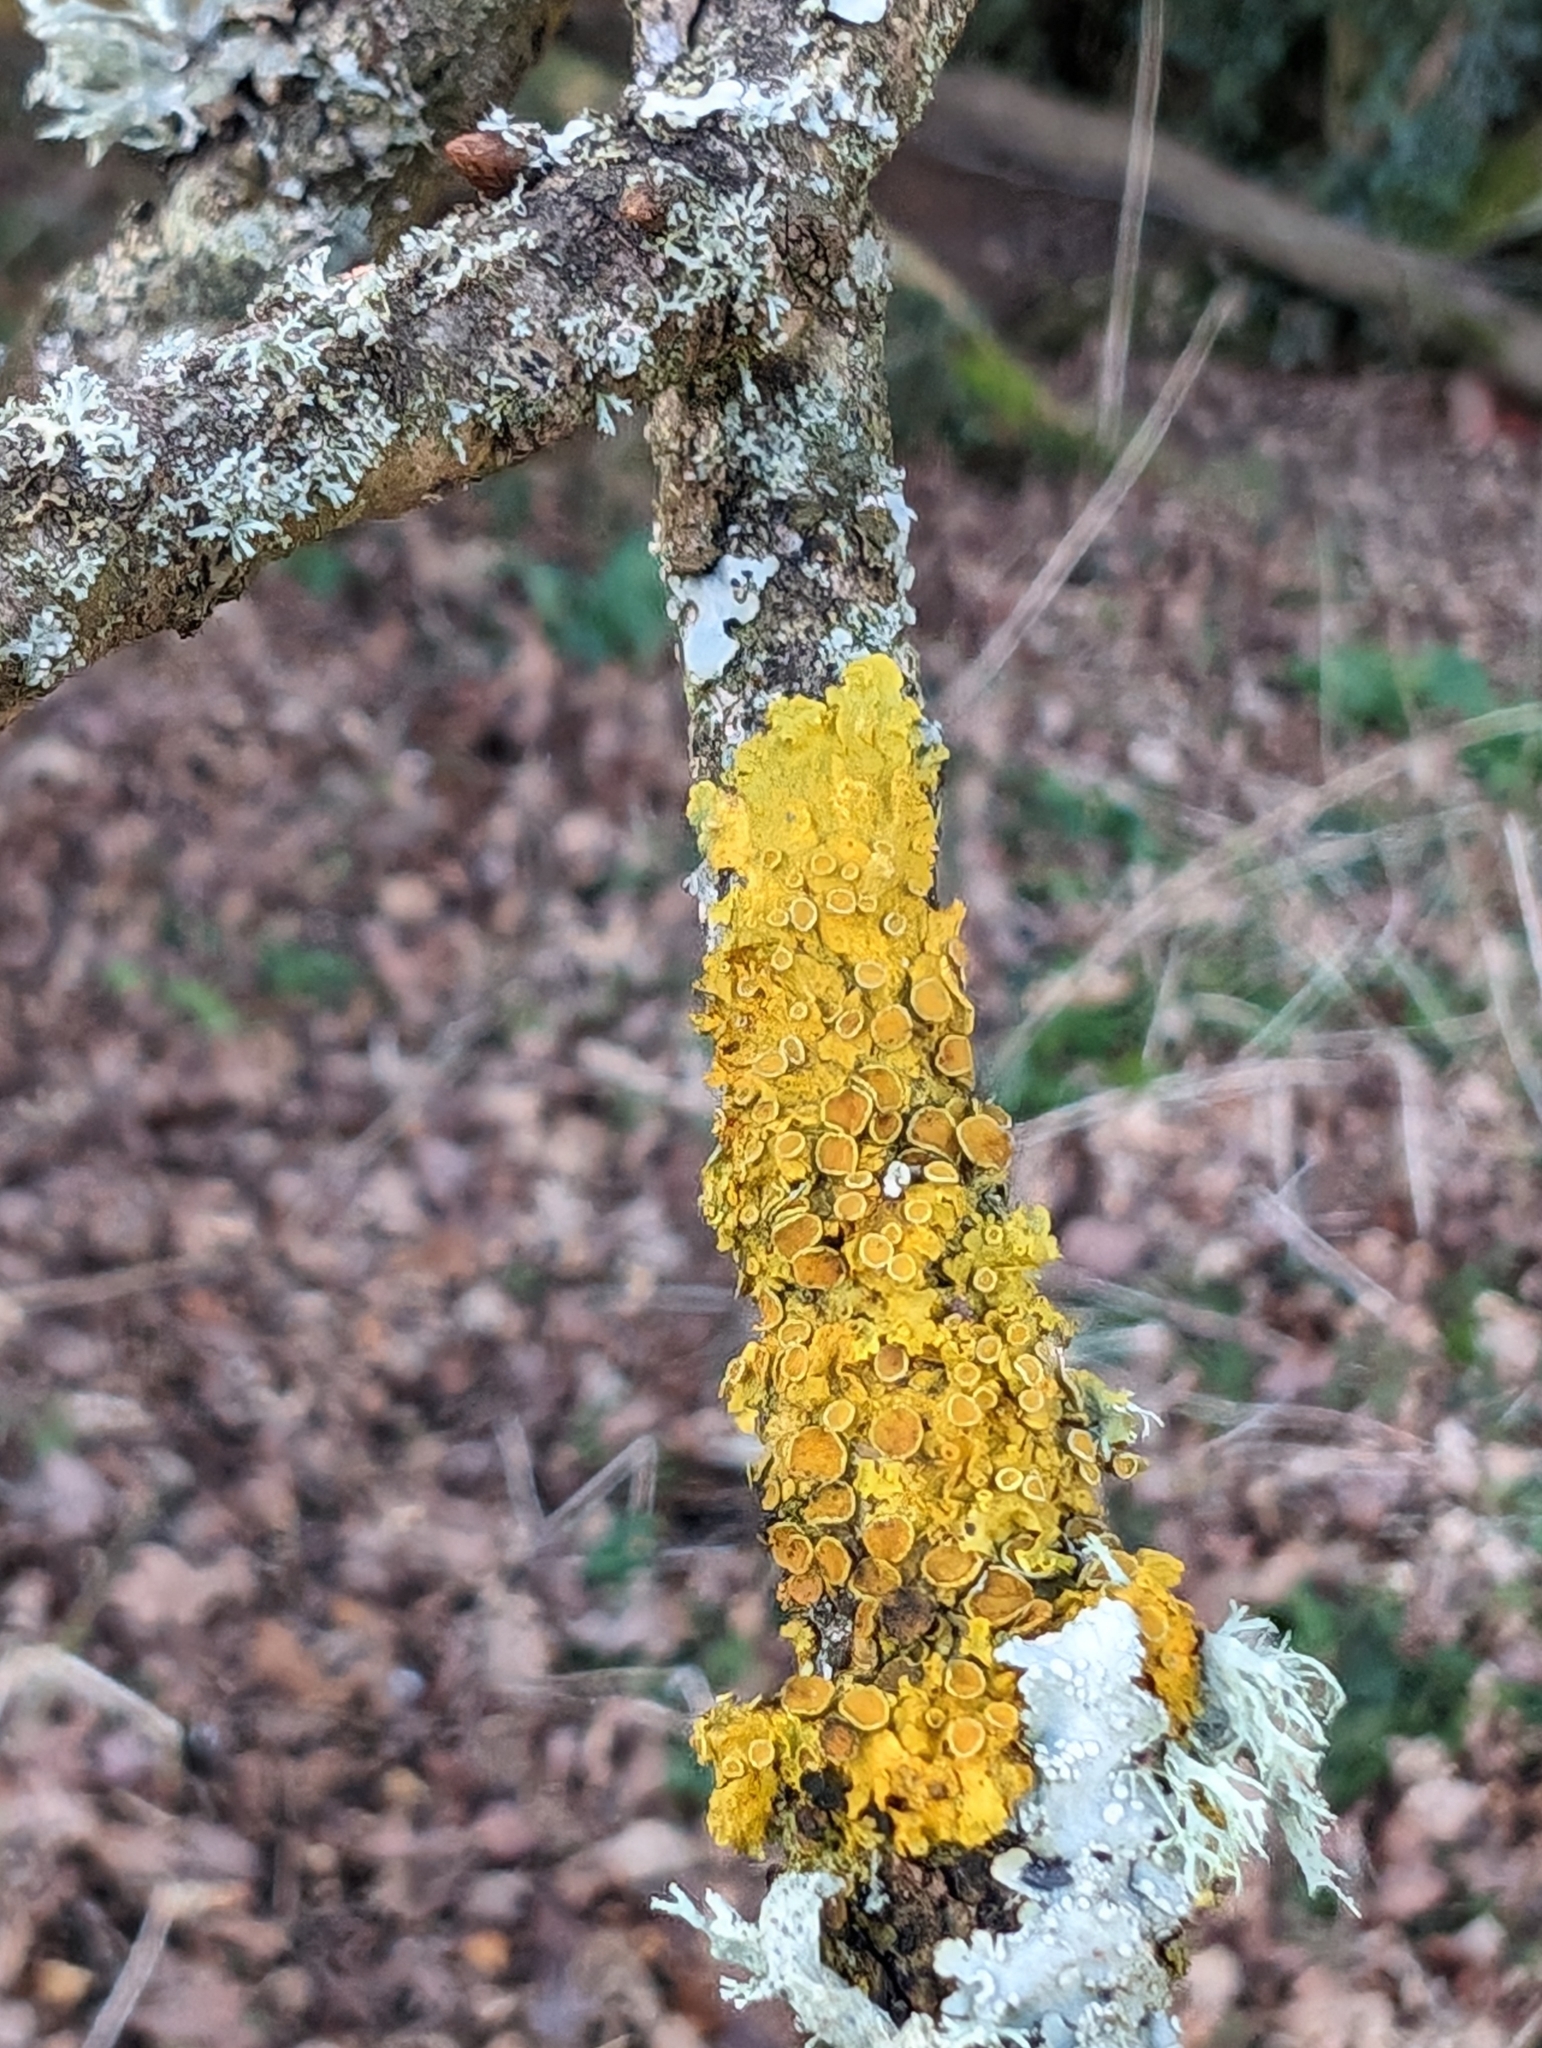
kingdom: Fungi
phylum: Ascomycota
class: Lecanoromycetes
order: Teloschistales
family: Teloschistaceae
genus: Xanthoria
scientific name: Xanthoria parietina
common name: Common orange lichen
